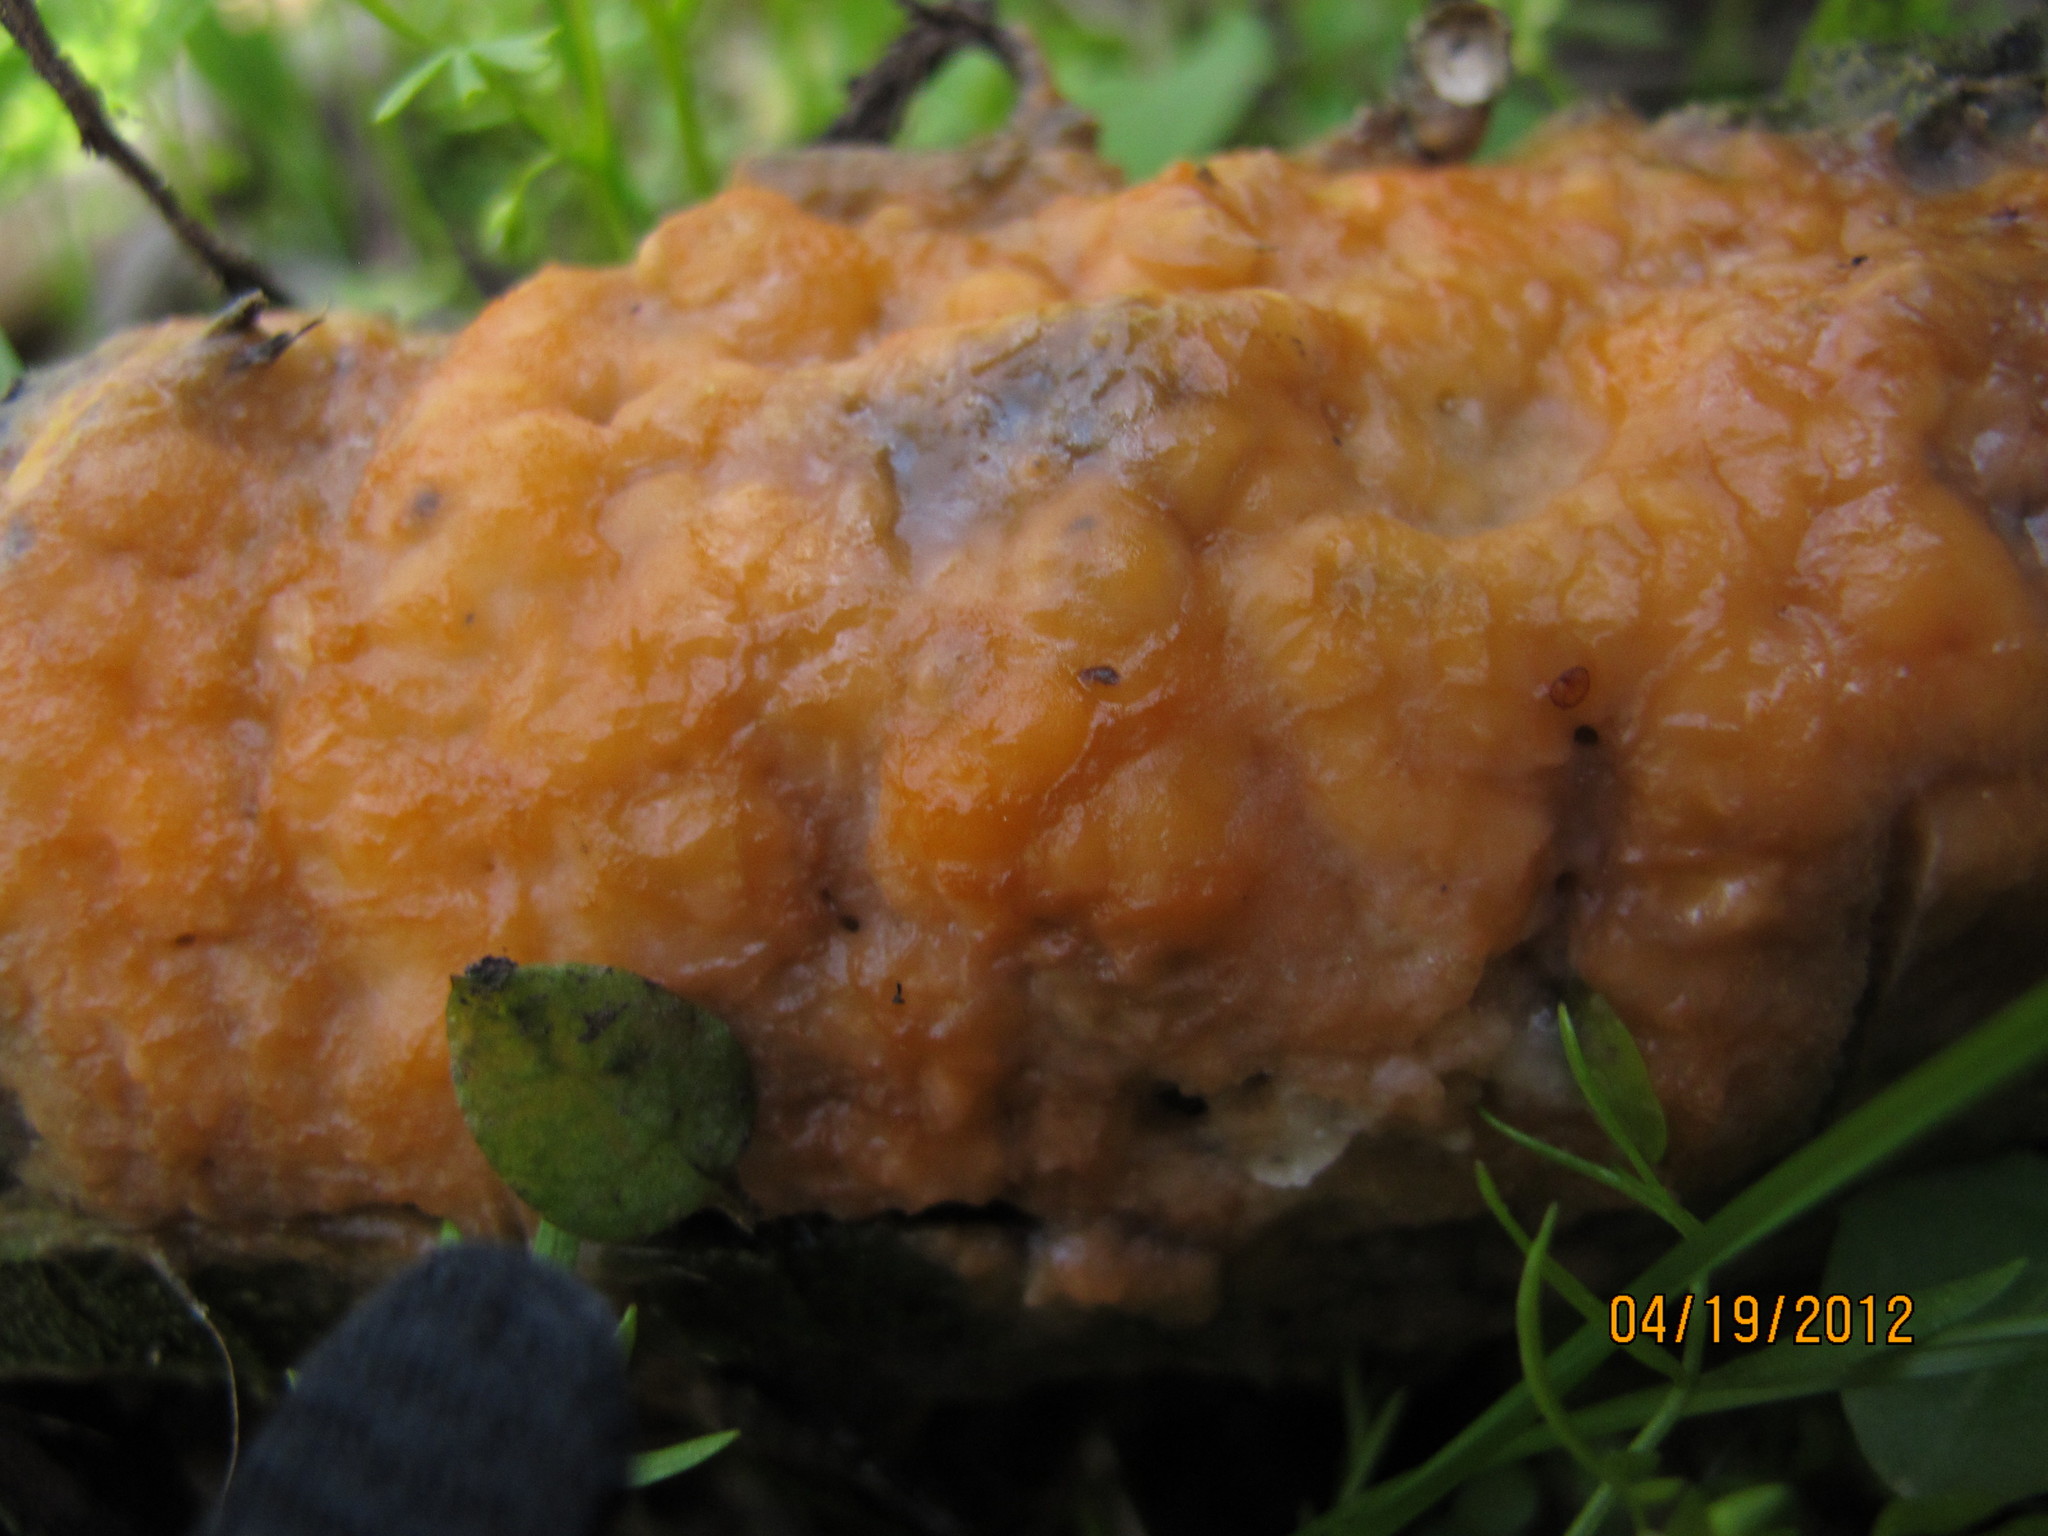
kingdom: Fungi
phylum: Ascomycota
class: Sordariomycetes
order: Hypocreales
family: Nectriaceae
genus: Fusicolla
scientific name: Fusicolla merismoides
